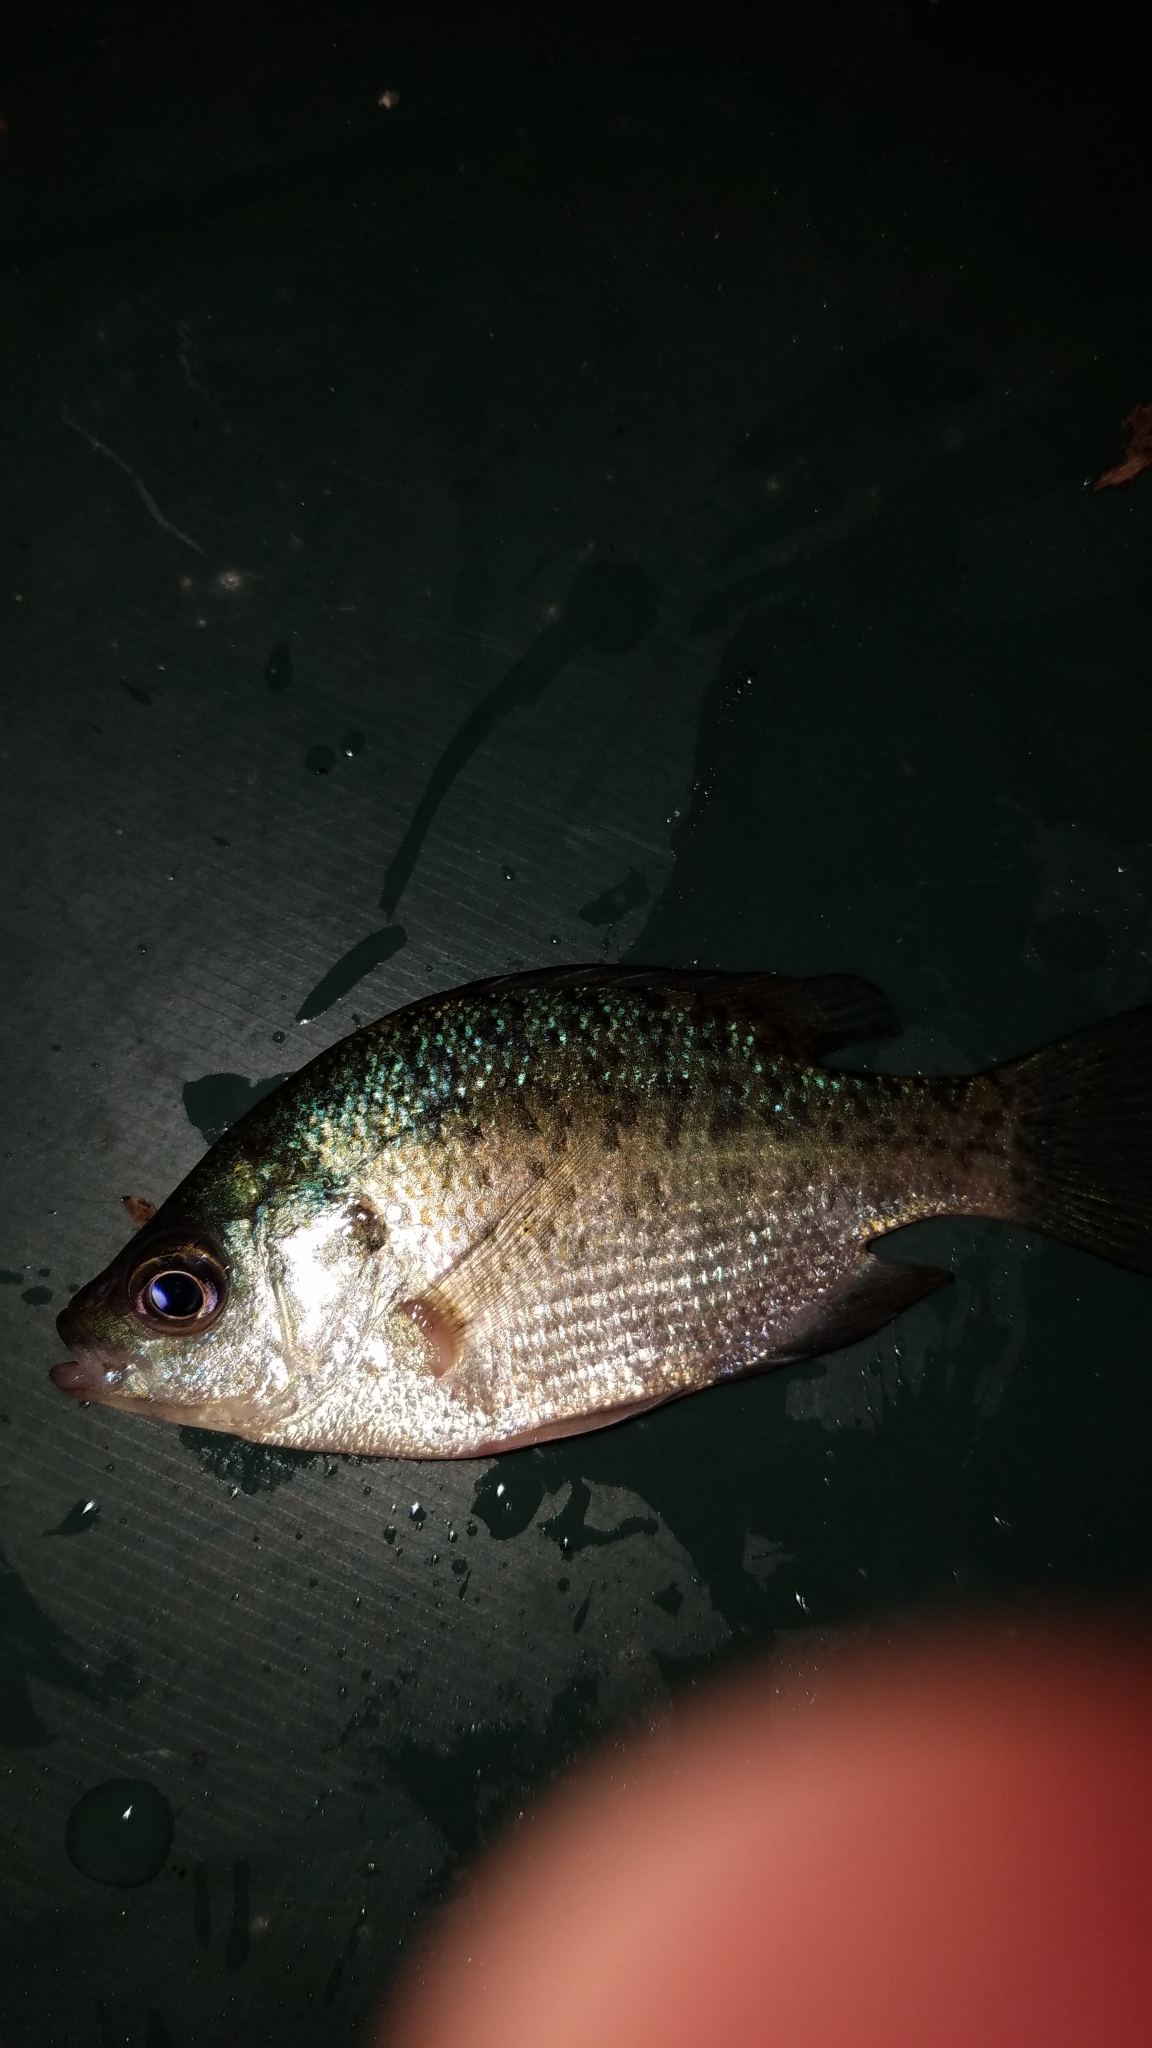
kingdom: Animalia
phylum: Chordata
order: Perciformes
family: Centrarchidae
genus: Lepomis
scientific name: Lepomis macrochirus
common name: Bluegill
